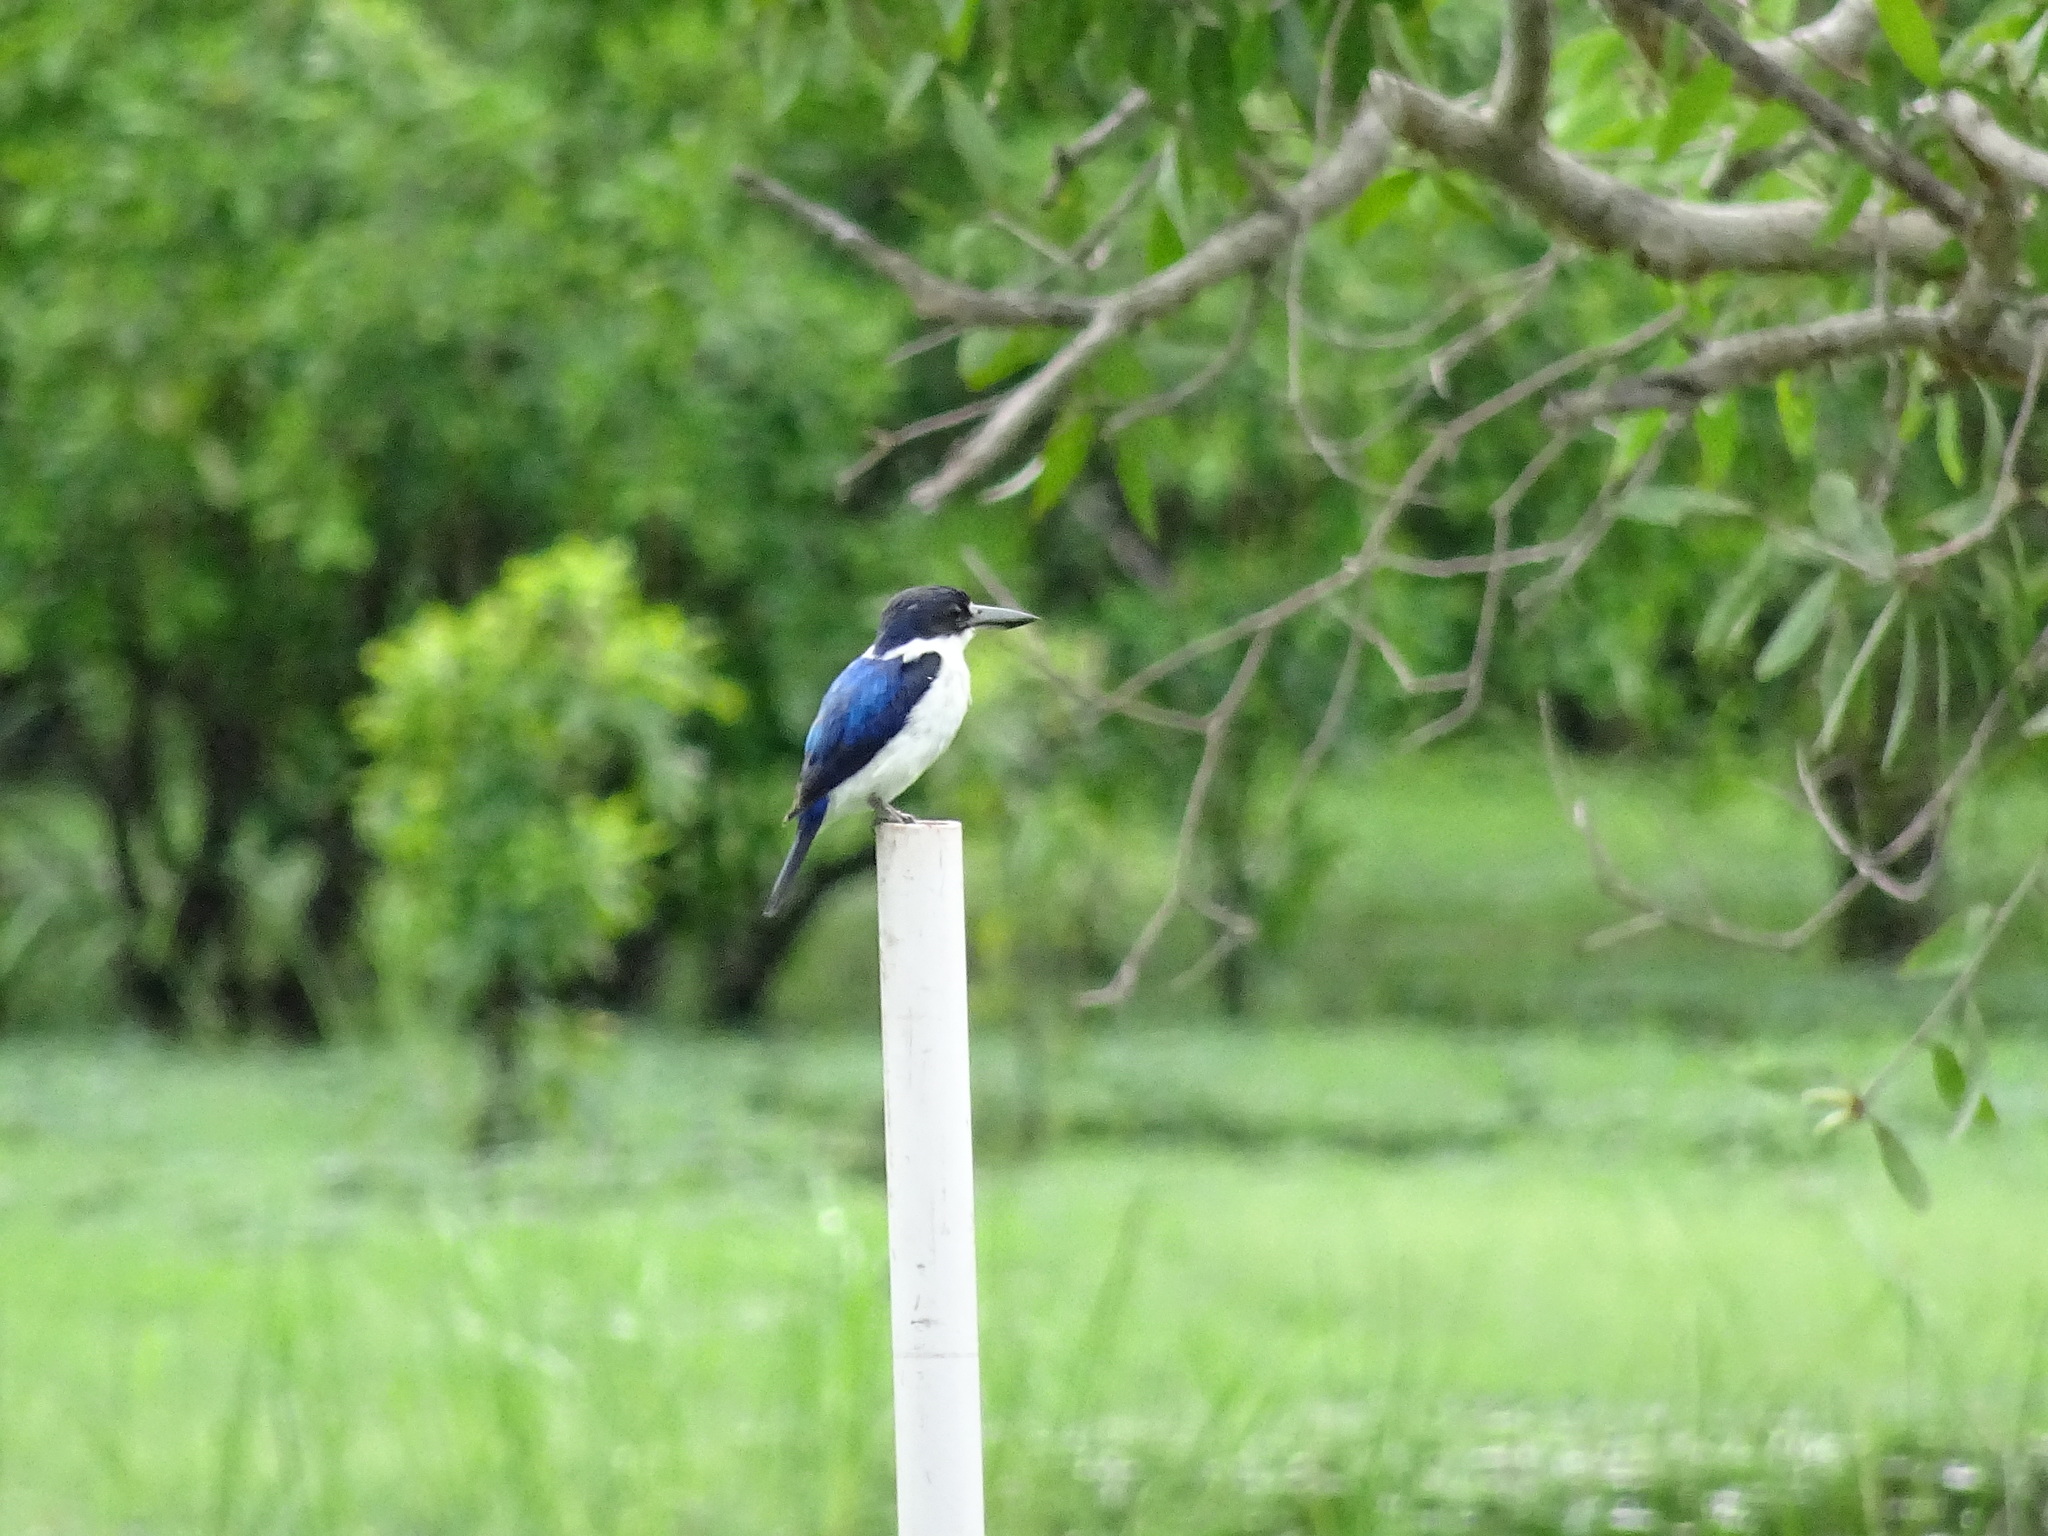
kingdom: Animalia
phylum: Chordata
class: Aves
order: Coraciiformes
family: Alcedinidae
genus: Todiramphus
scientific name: Todiramphus macleayii
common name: Forest kingfisher
